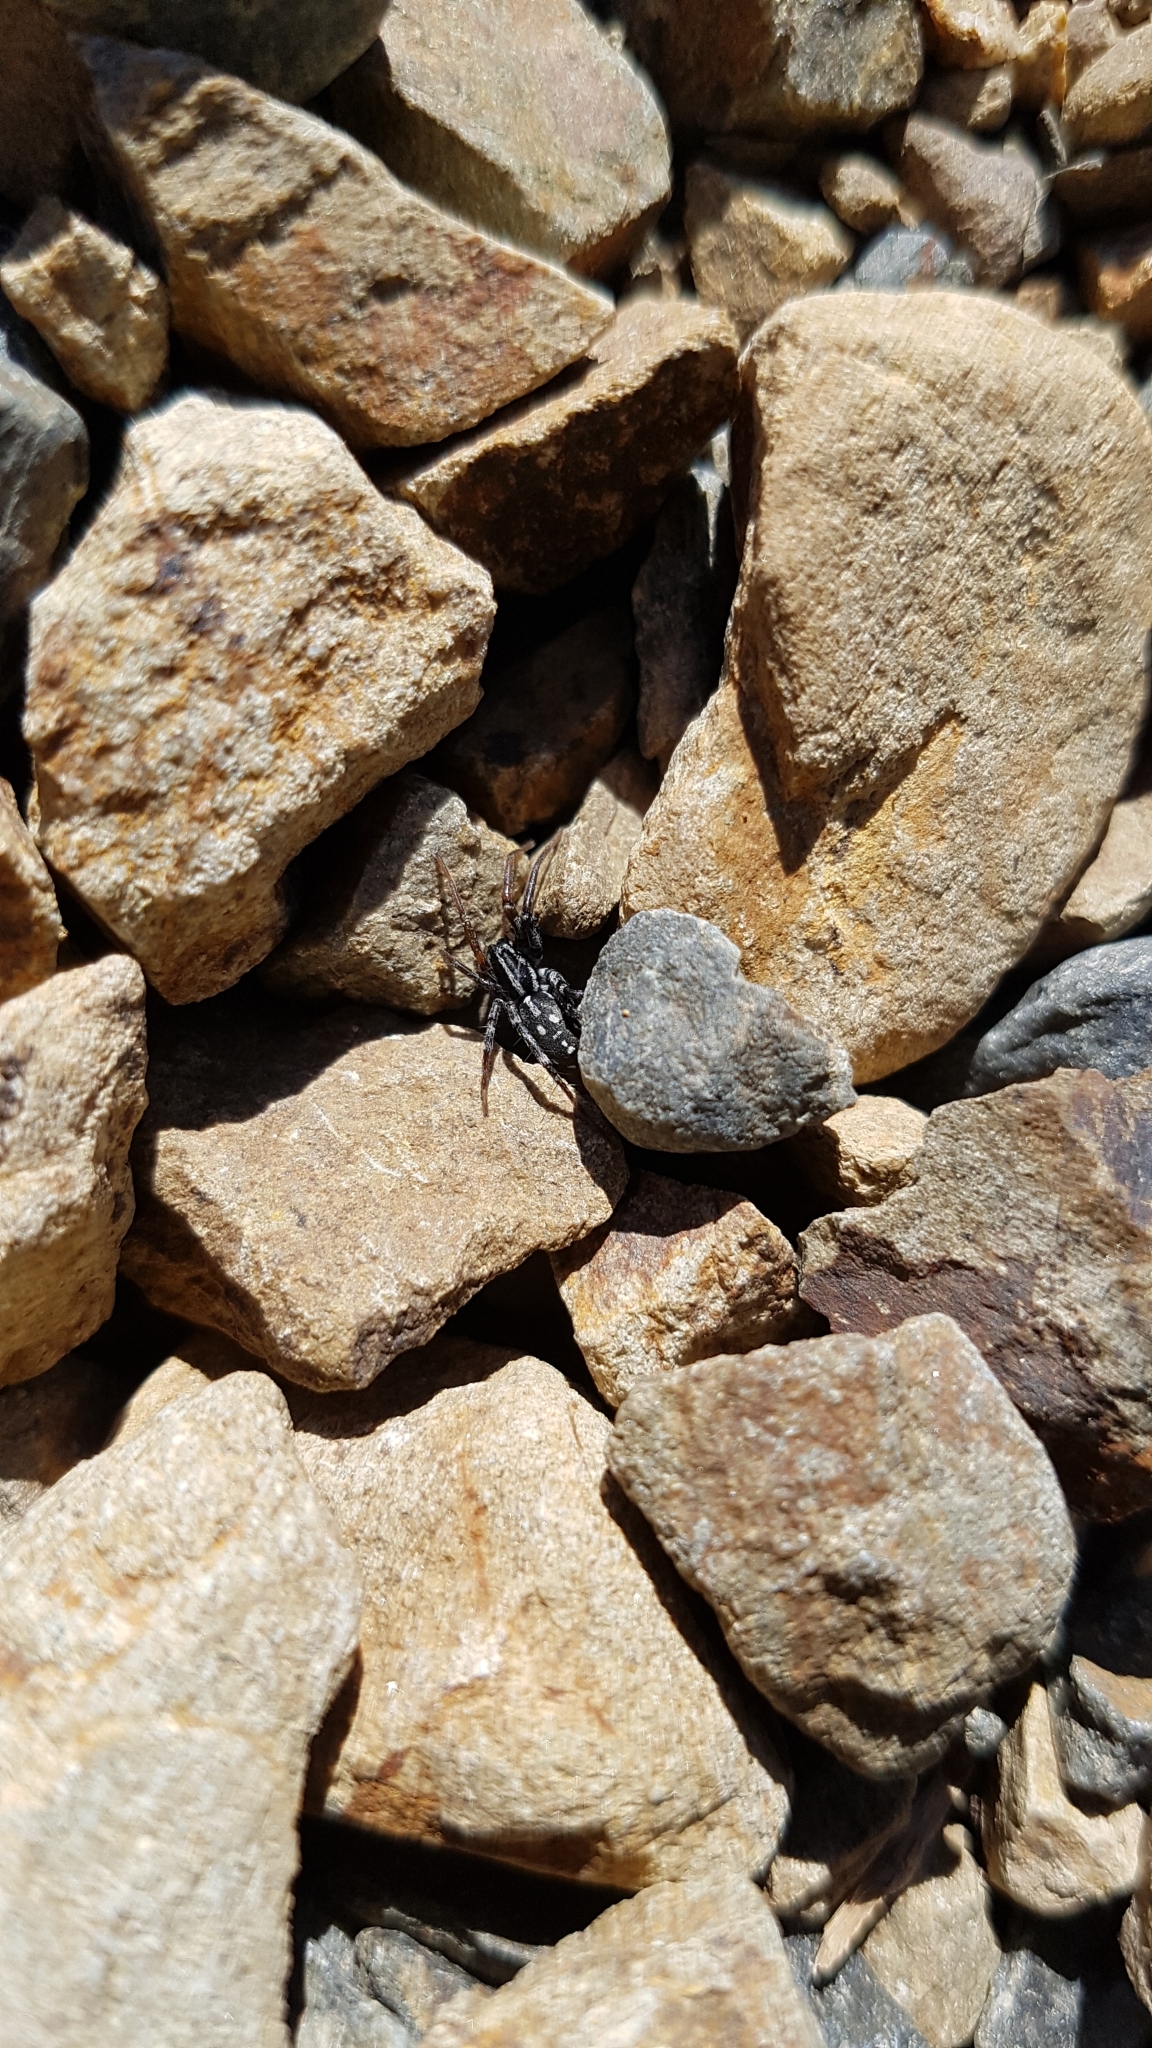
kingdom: Animalia
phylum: Arthropoda
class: Arachnida
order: Araneae
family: Corinnidae
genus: Nyssus
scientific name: Nyssus coloripes
